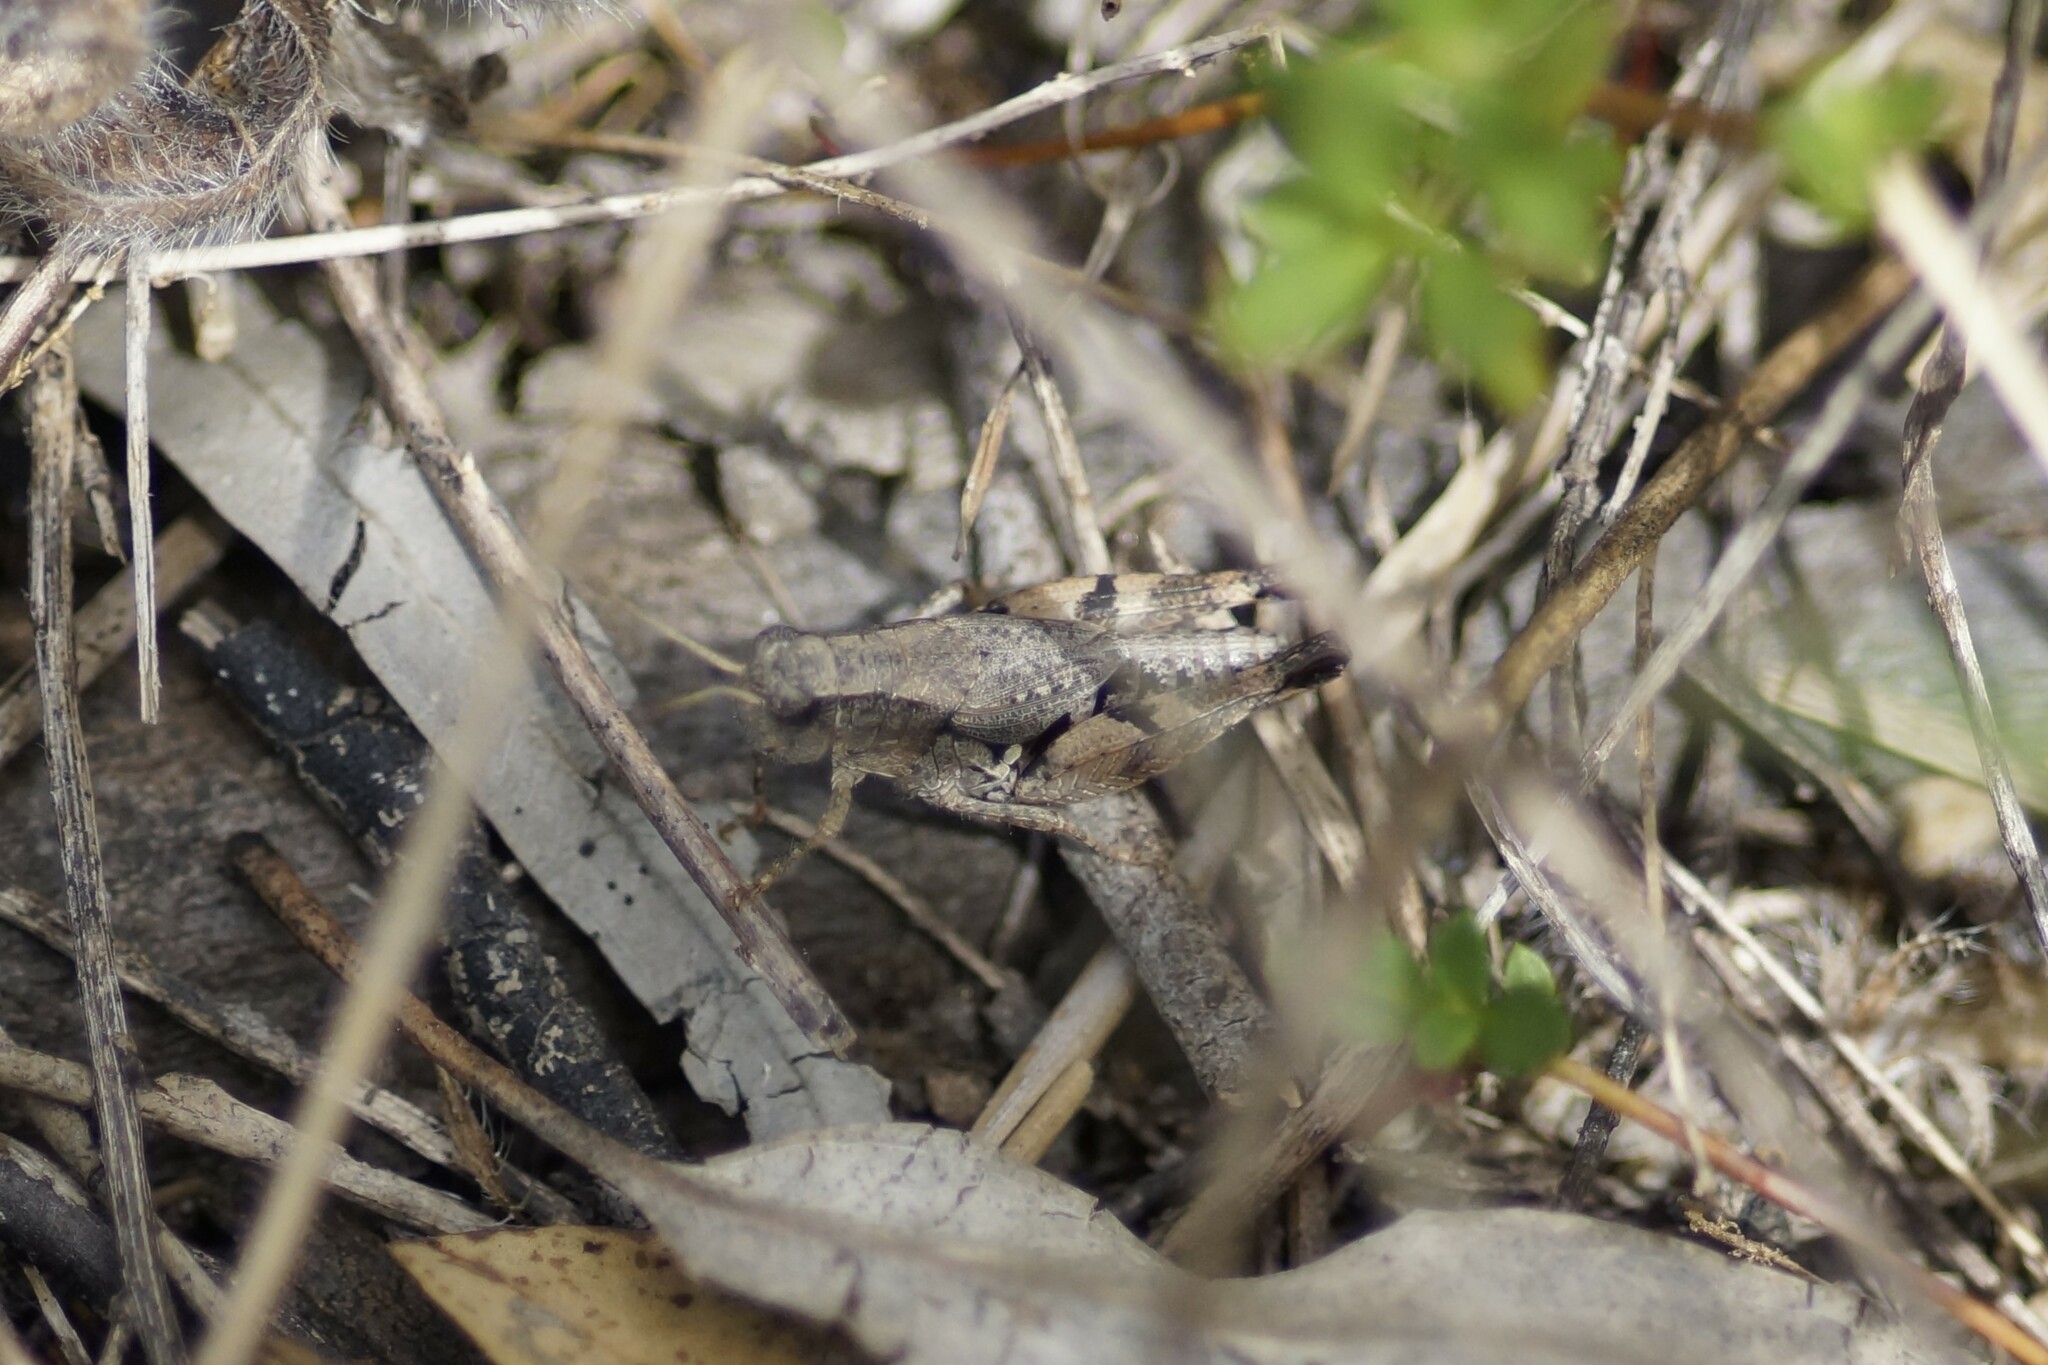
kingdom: Animalia
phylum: Arthropoda
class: Insecta
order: Orthoptera
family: Acrididae
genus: Phaulacridium
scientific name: Phaulacridium vittatum
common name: Wingless grasshopper
